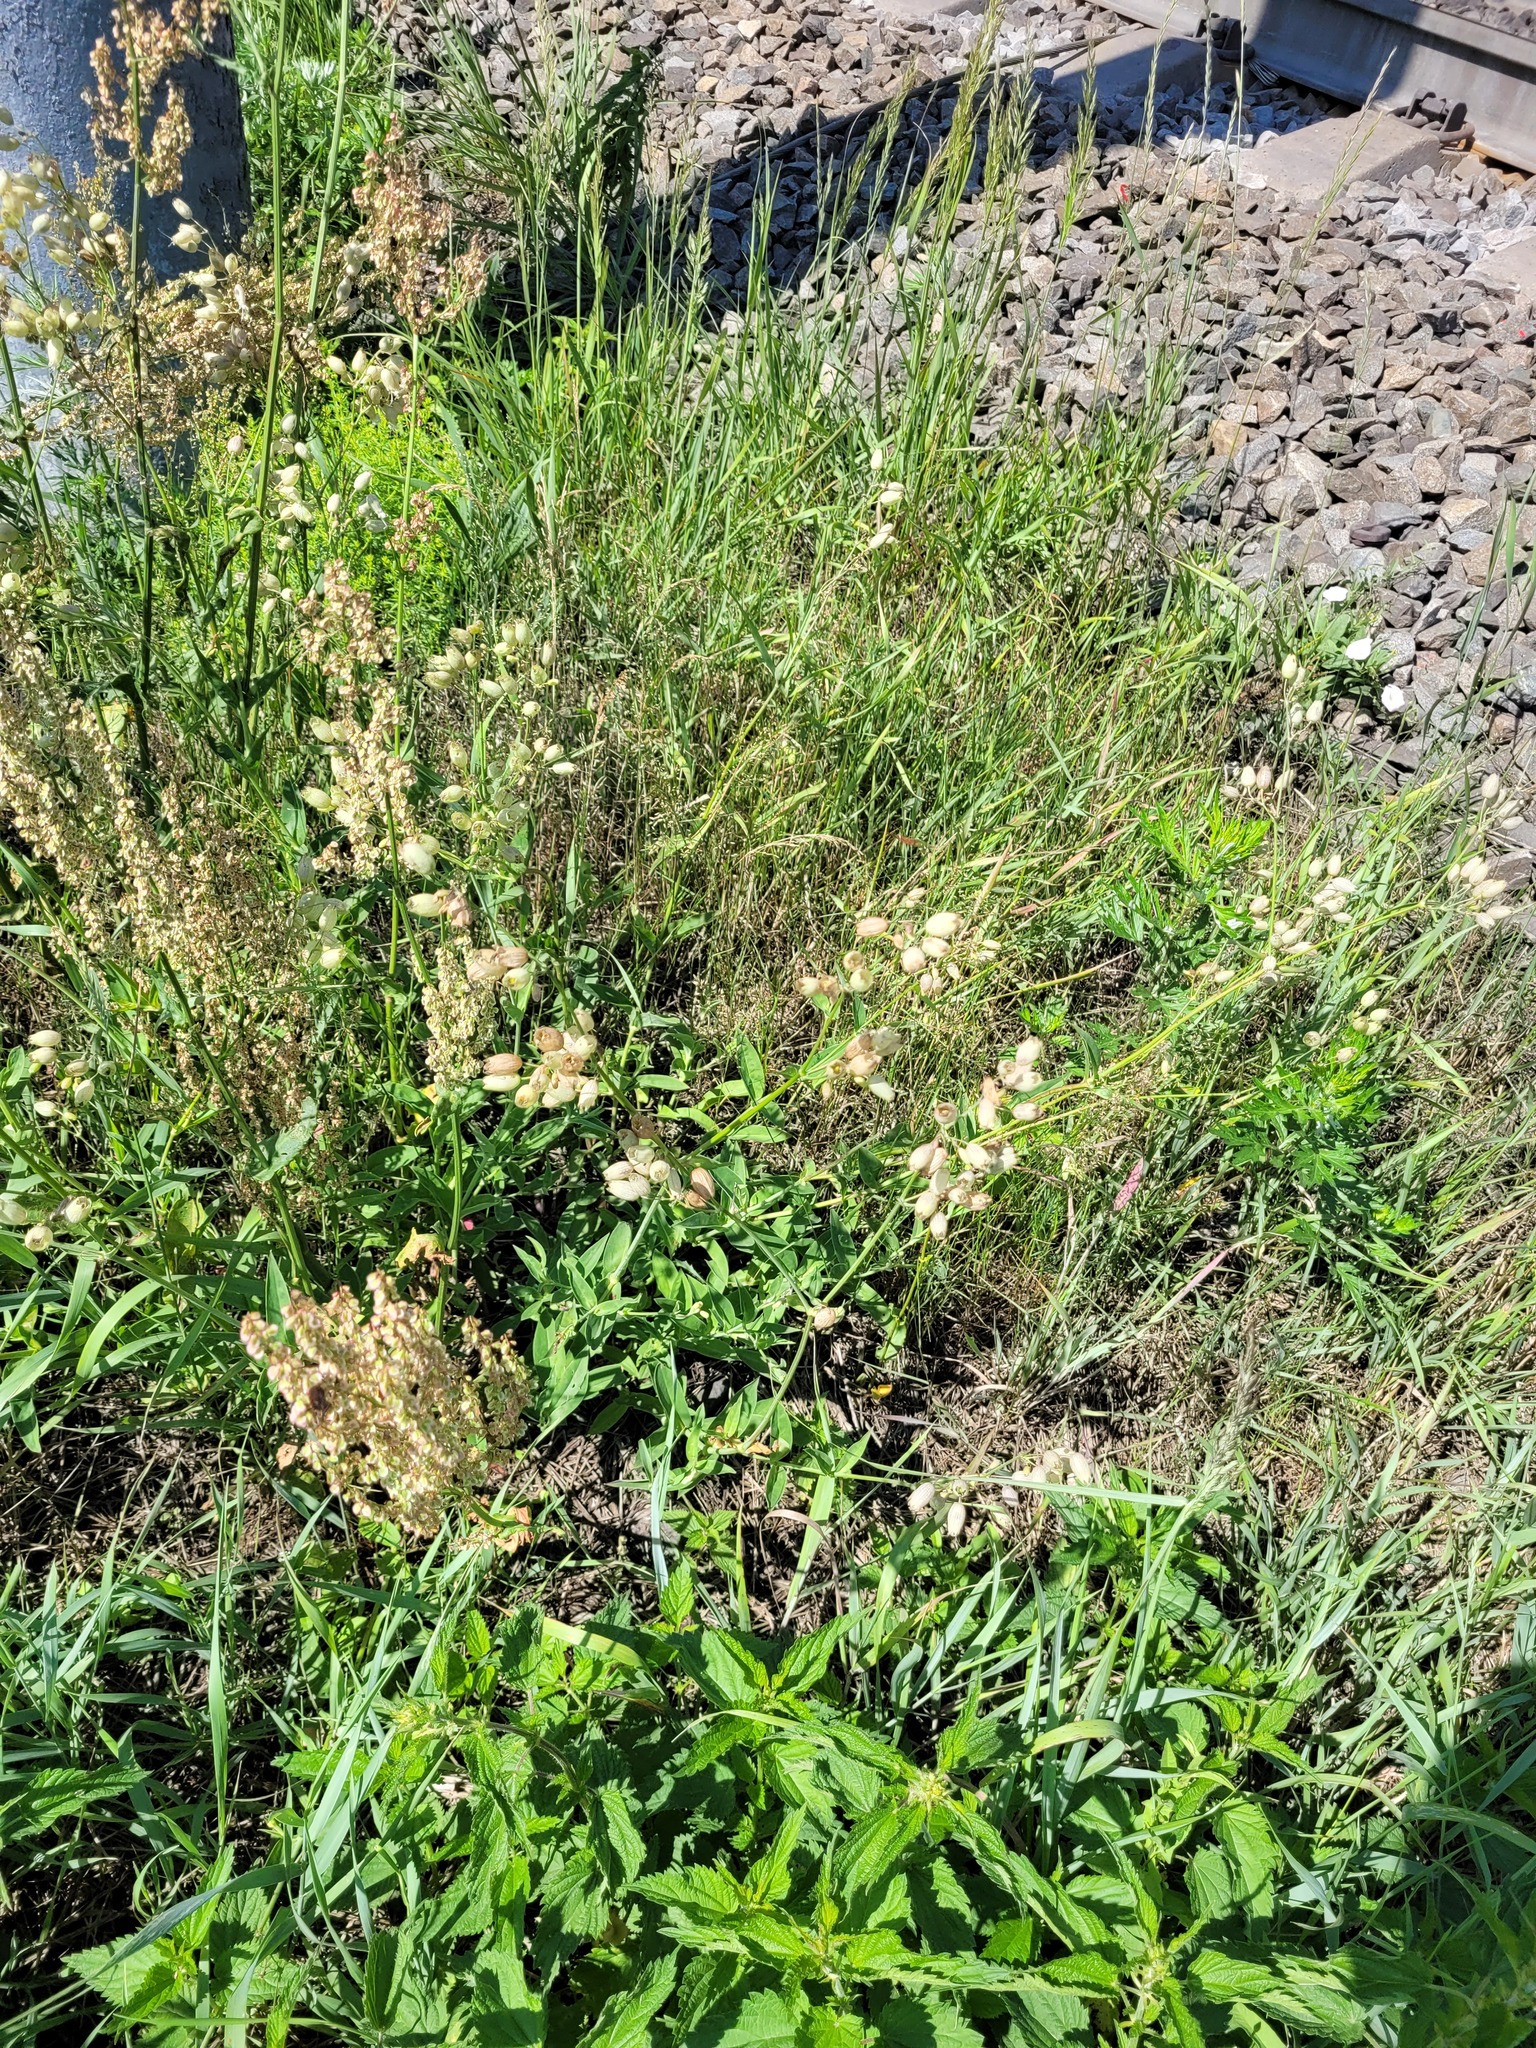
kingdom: Plantae
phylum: Tracheophyta
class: Magnoliopsida
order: Caryophyllales
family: Caryophyllaceae
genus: Silene
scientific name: Silene vulgaris
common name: Bladder campion
